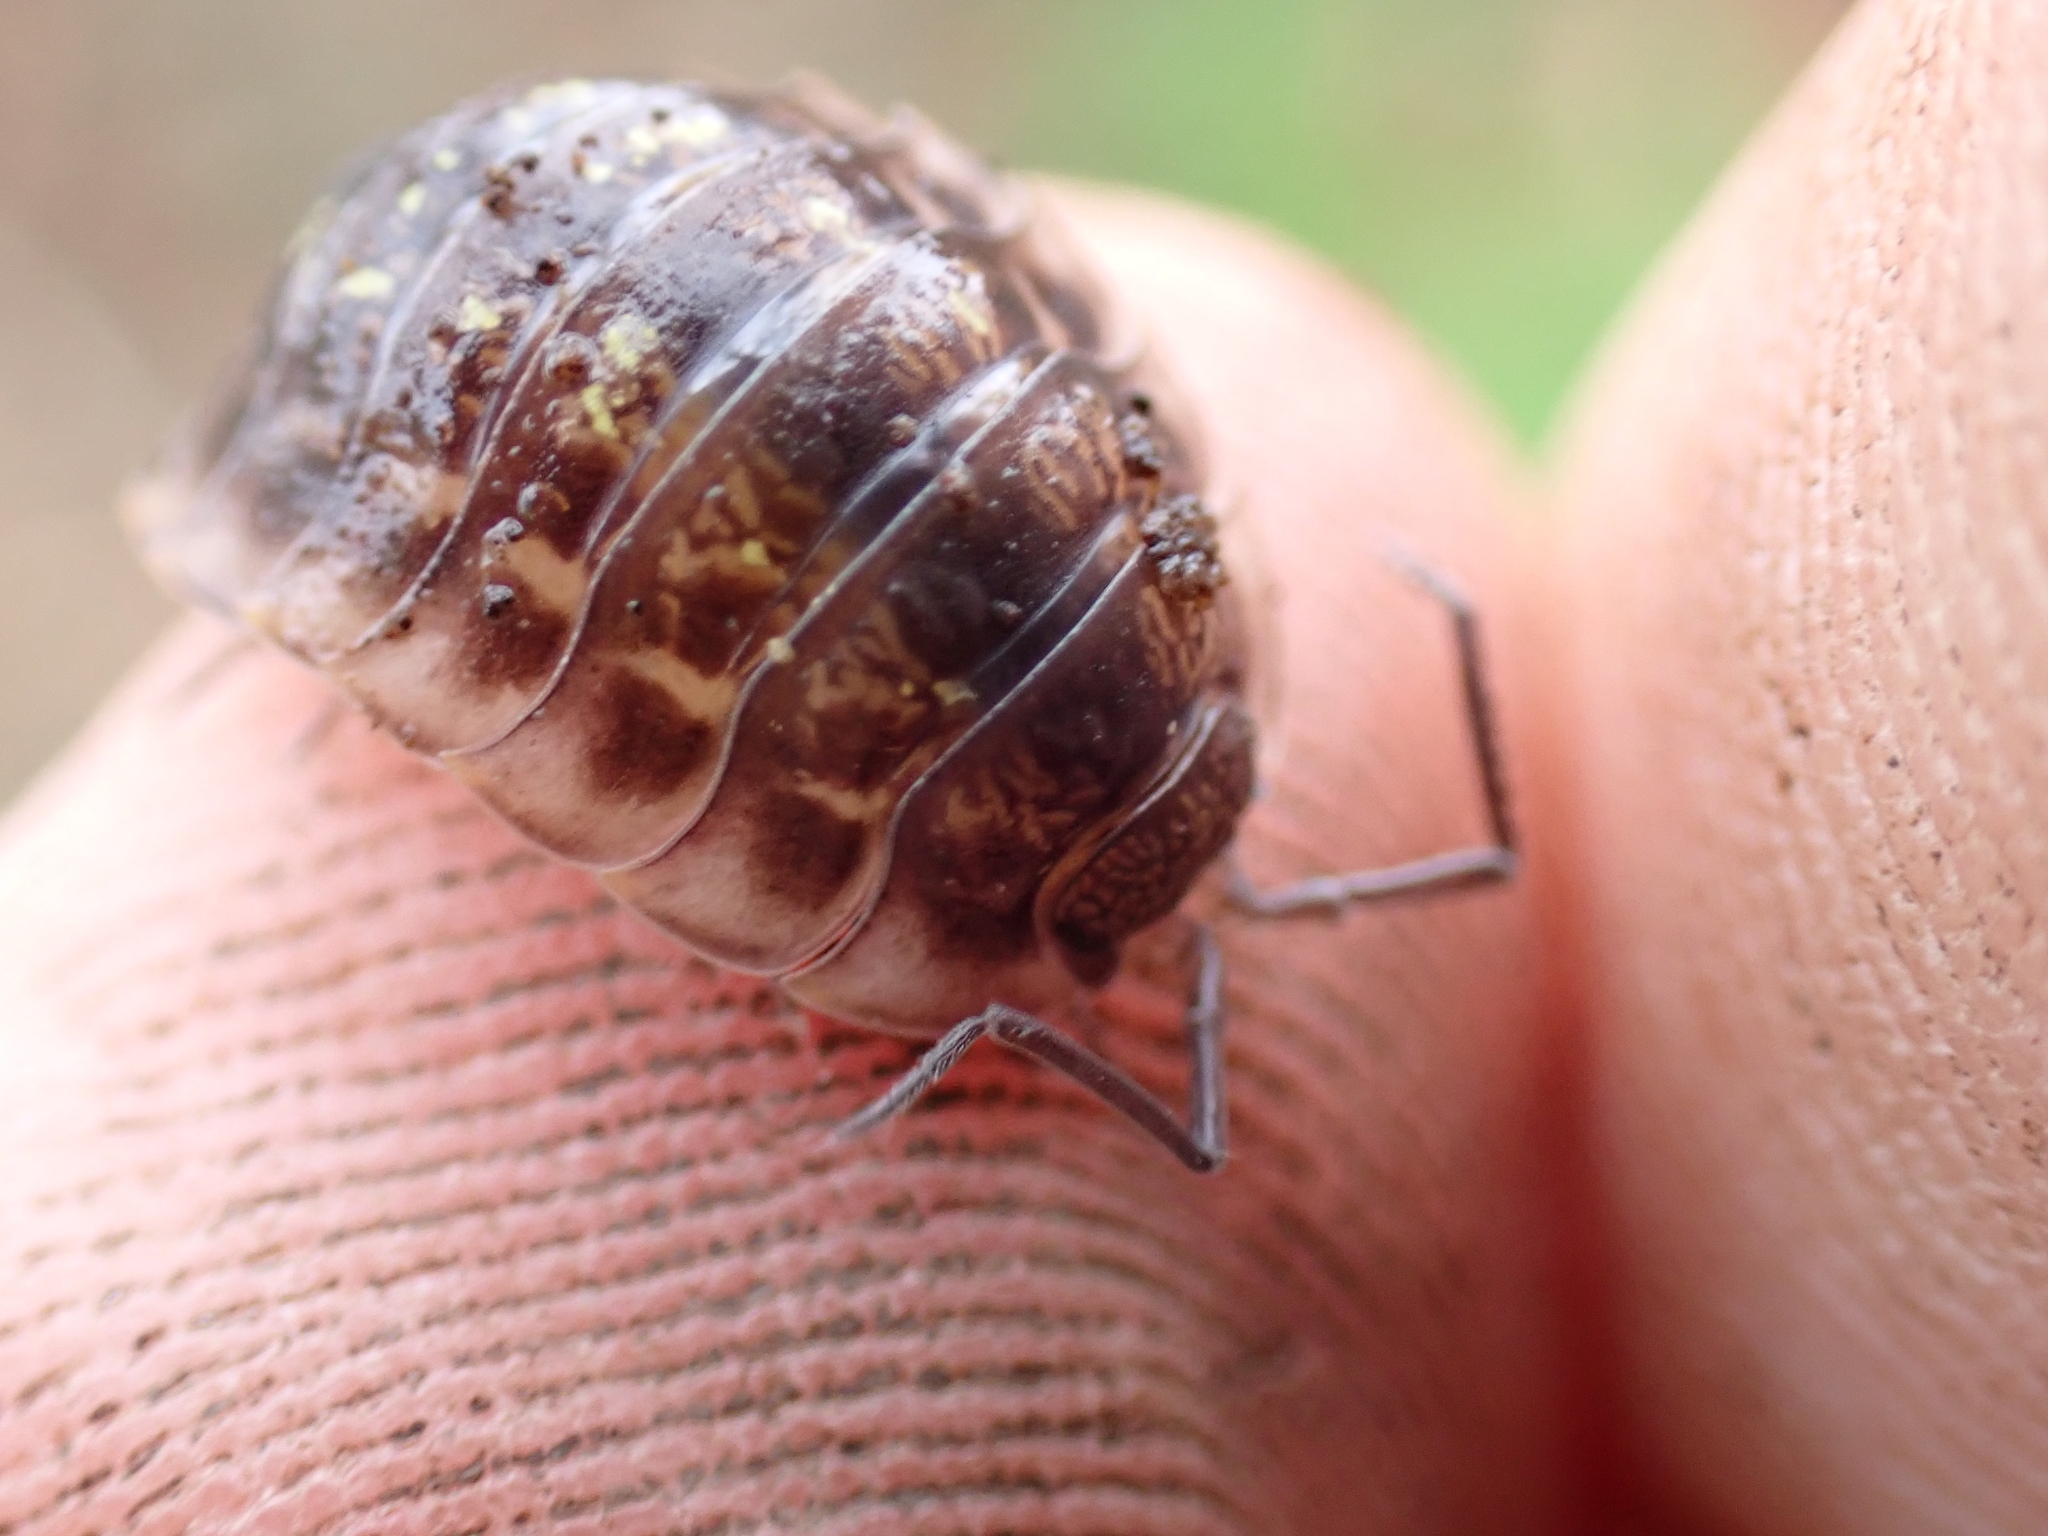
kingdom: Animalia
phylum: Arthropoda
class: Malacostraca
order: Isopoda
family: Oniscidae
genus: Oniscus
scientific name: Oniscus asellus
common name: Common shiny woodlouse
